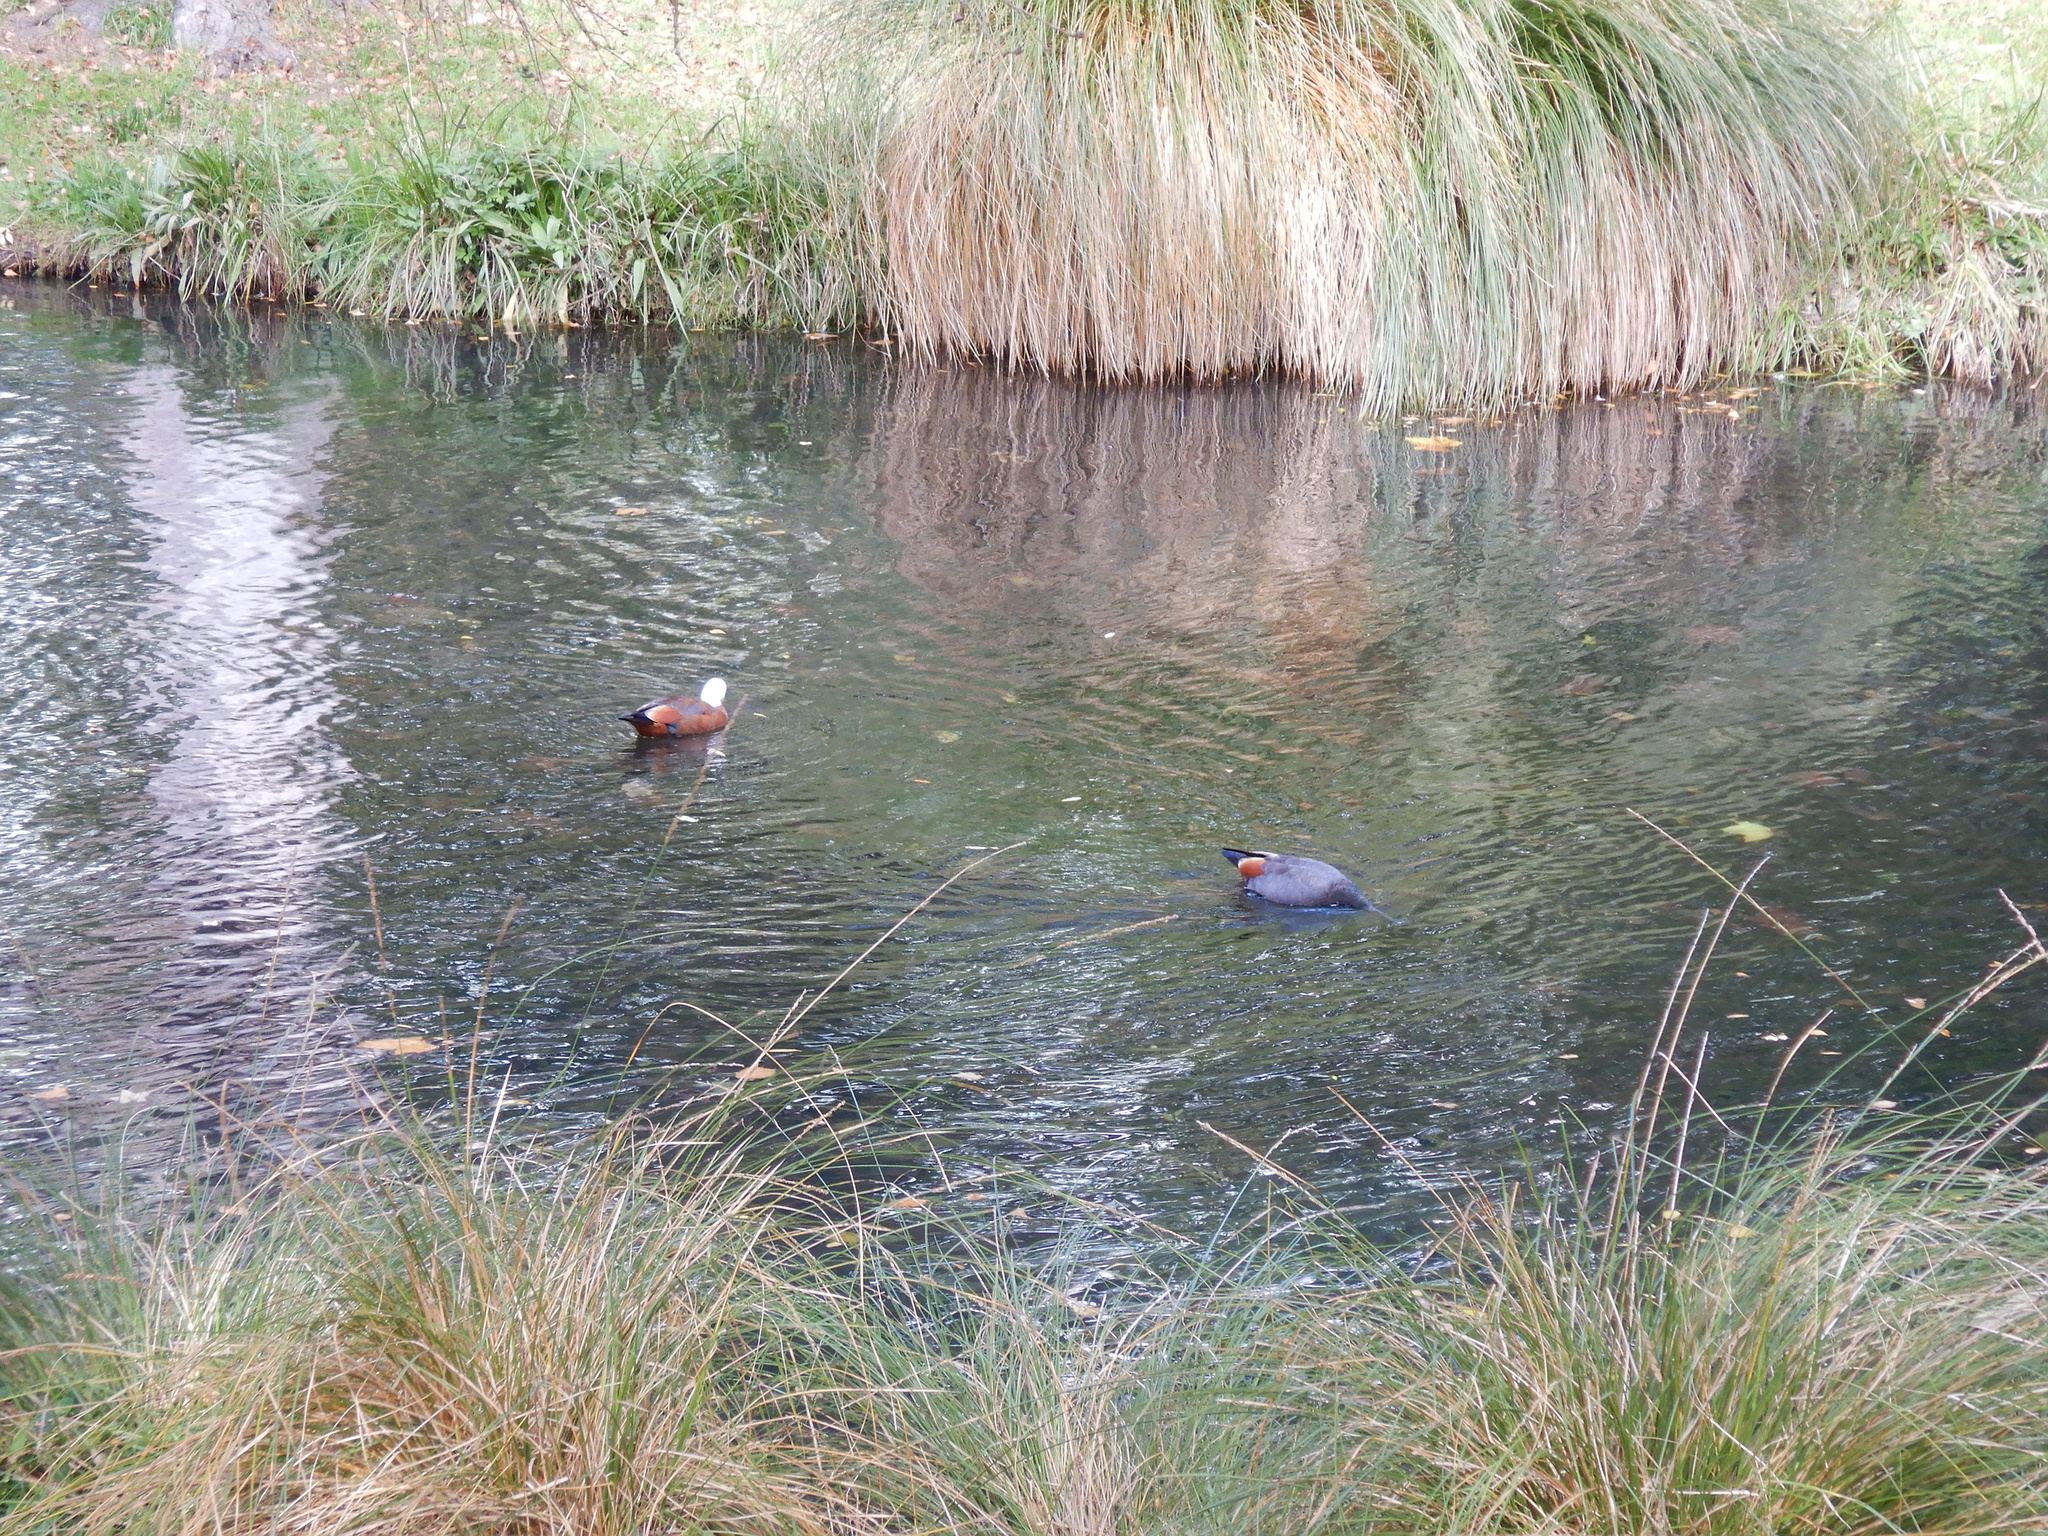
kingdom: Animalia
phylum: Chordata
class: Aves
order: Anseriformes
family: Anatidae
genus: Tadorna
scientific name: Tadorna variegata
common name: Paradise shelduck
